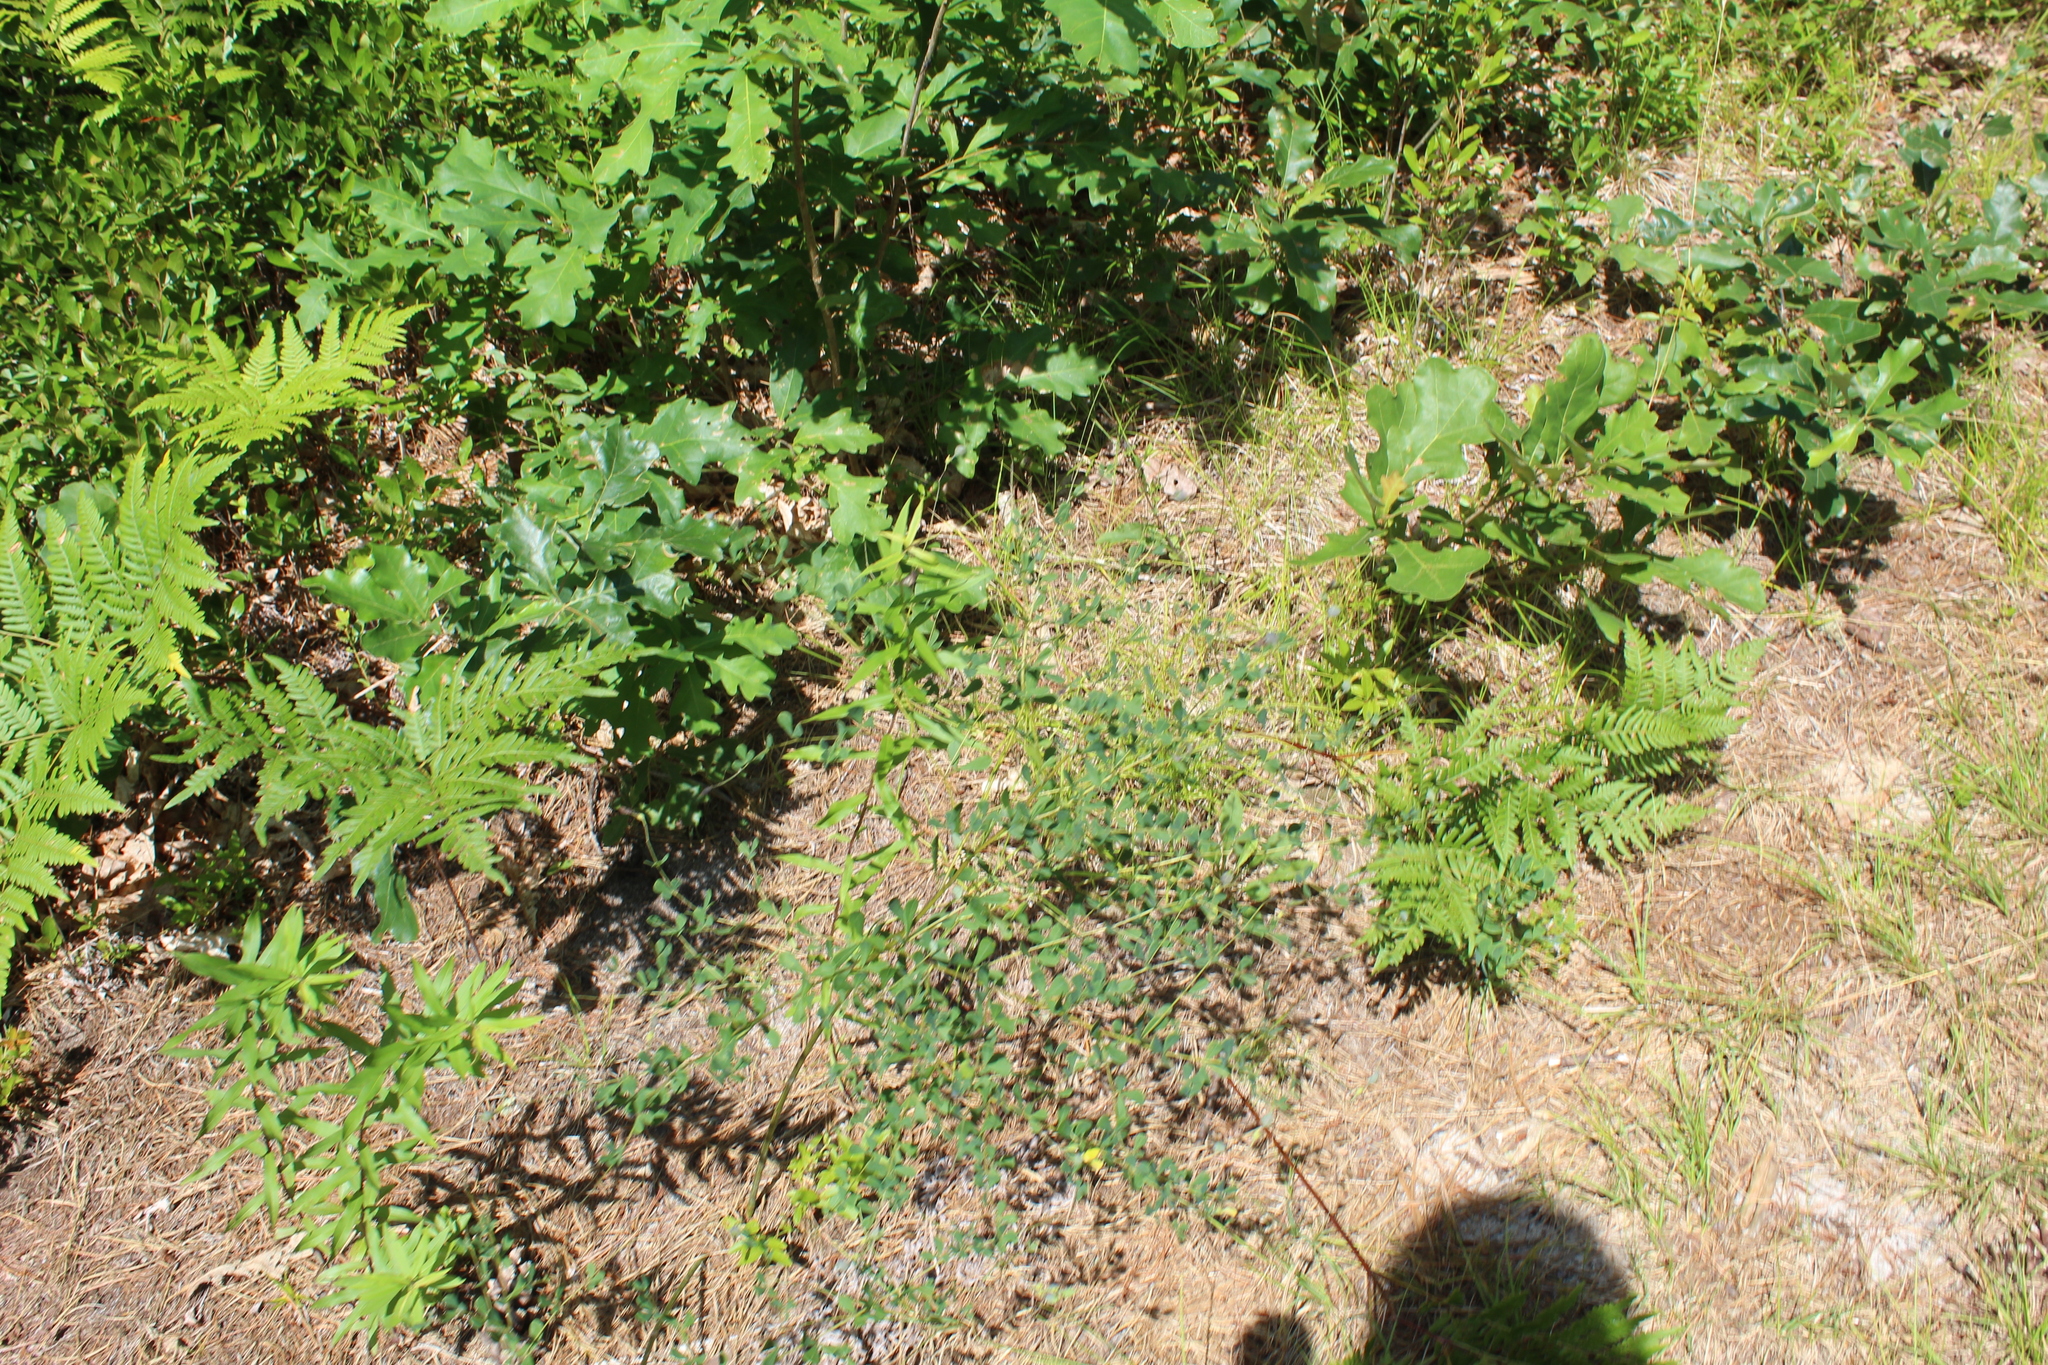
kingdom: Plantae
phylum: Tracheophyta
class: Magnoliopsida
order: Fabales
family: Fabaceae
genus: Baptisia
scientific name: Baptisia tinctoria
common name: Wild indigo
